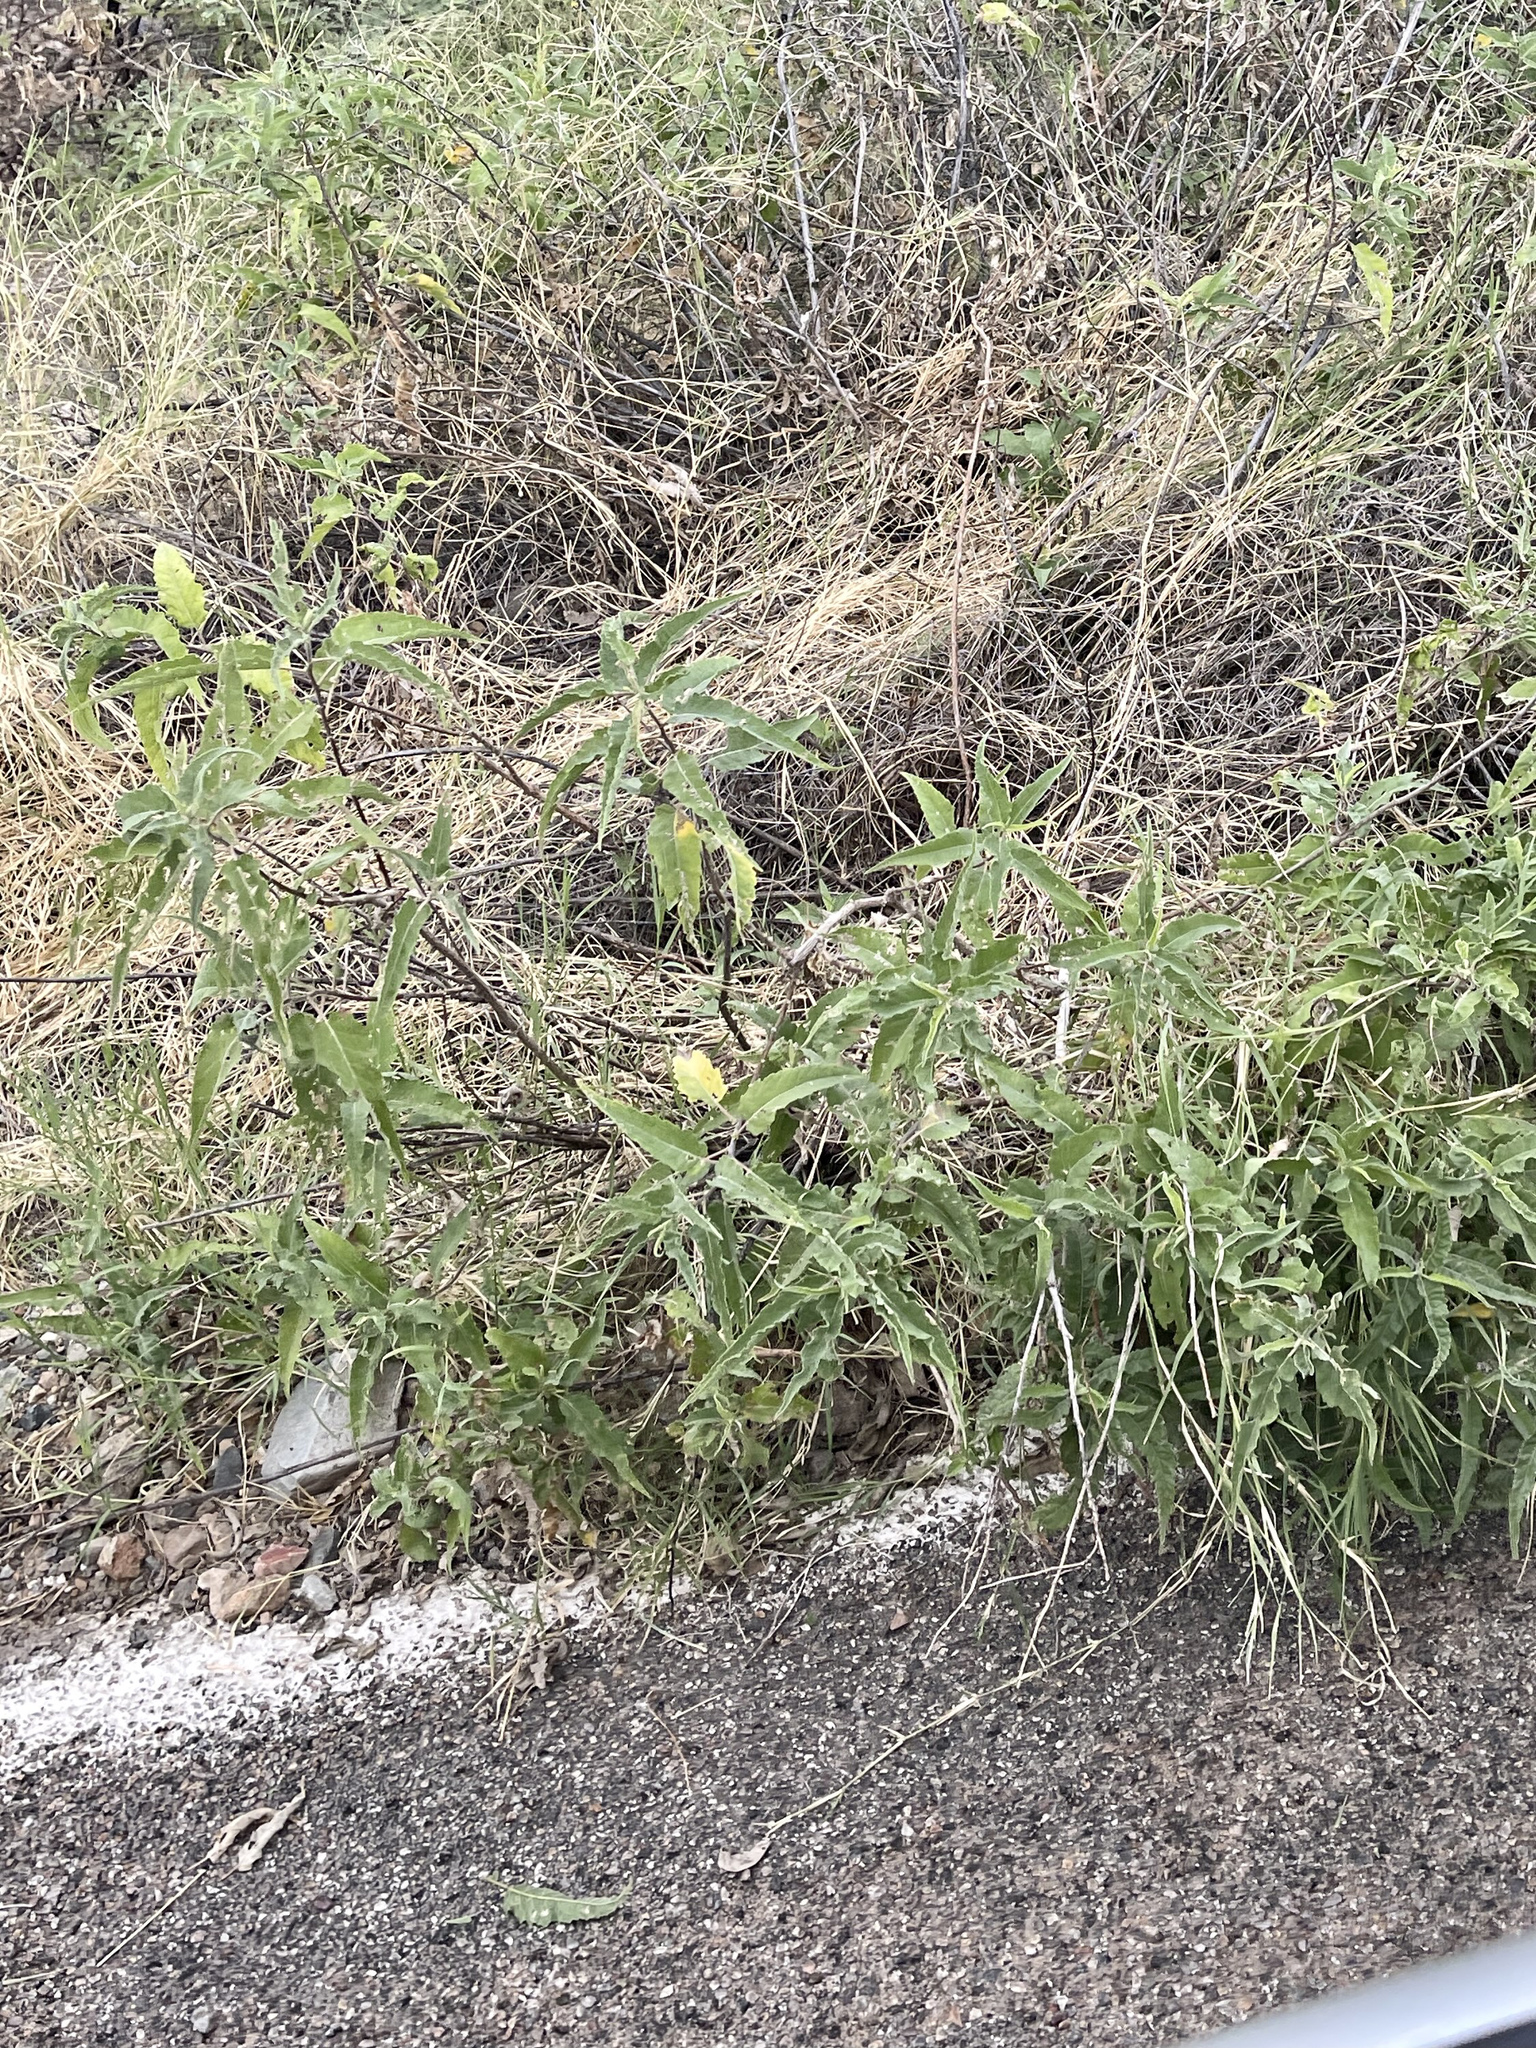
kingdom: Plantae
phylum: Tracheophyta
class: Magnoliopsida
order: Asterales
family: Asteraceae
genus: Ambrosia
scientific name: Ambrosia ambrosioides
